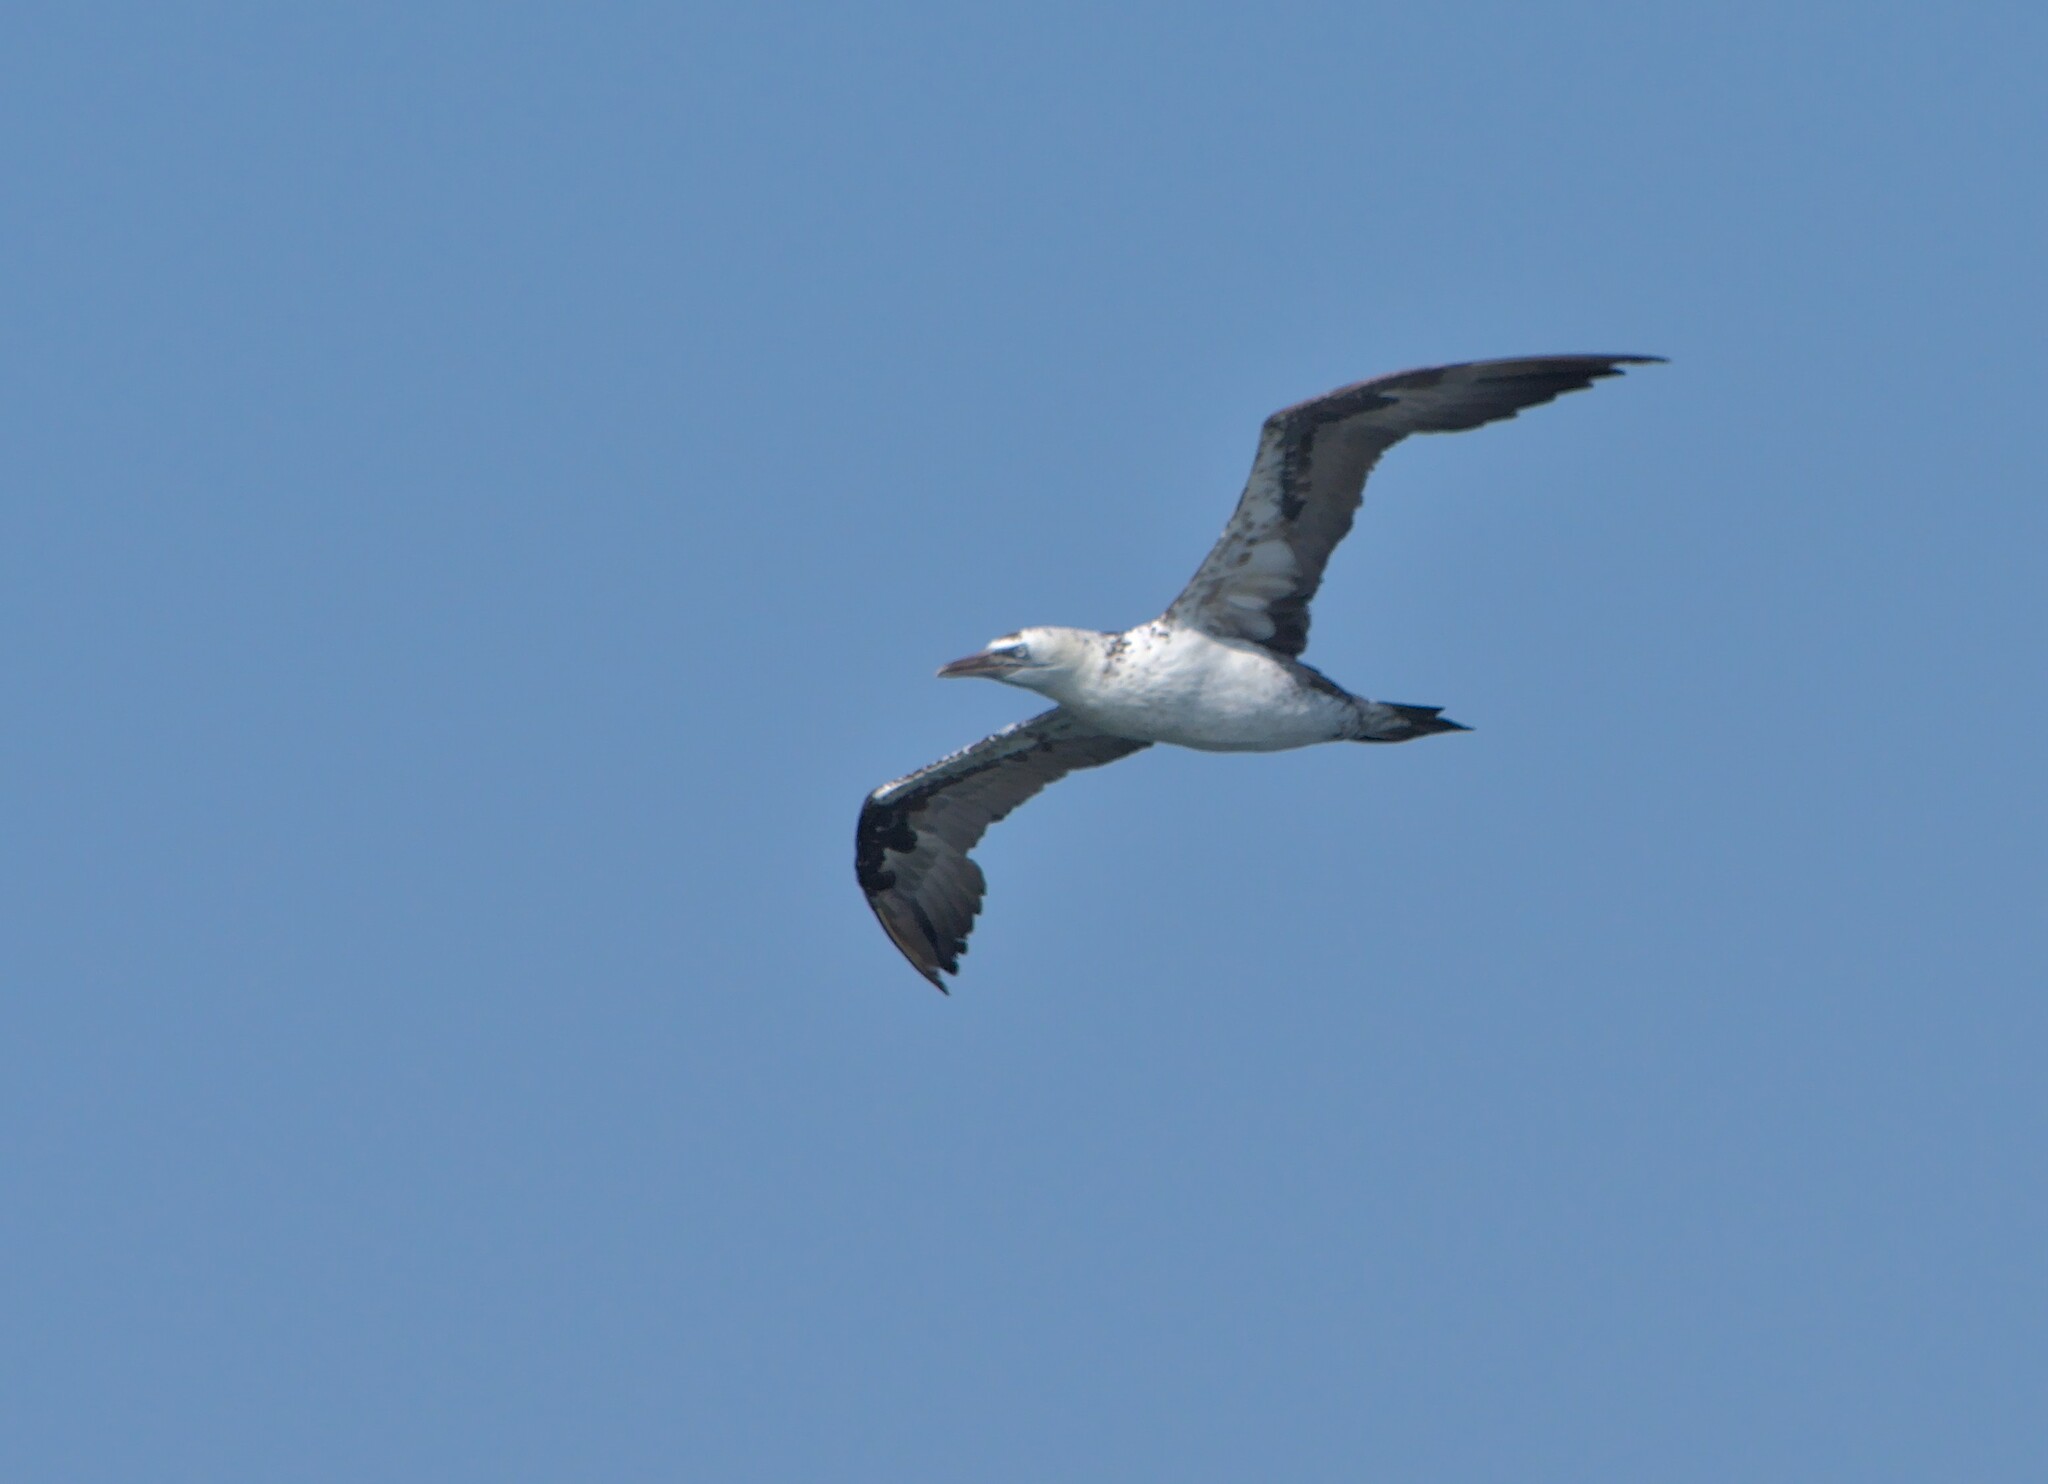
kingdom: Animalia
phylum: Chordata
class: Aves
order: Suliformes
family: Sulidae
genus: Morus
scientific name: Morus bassanus
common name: Northern gannet
